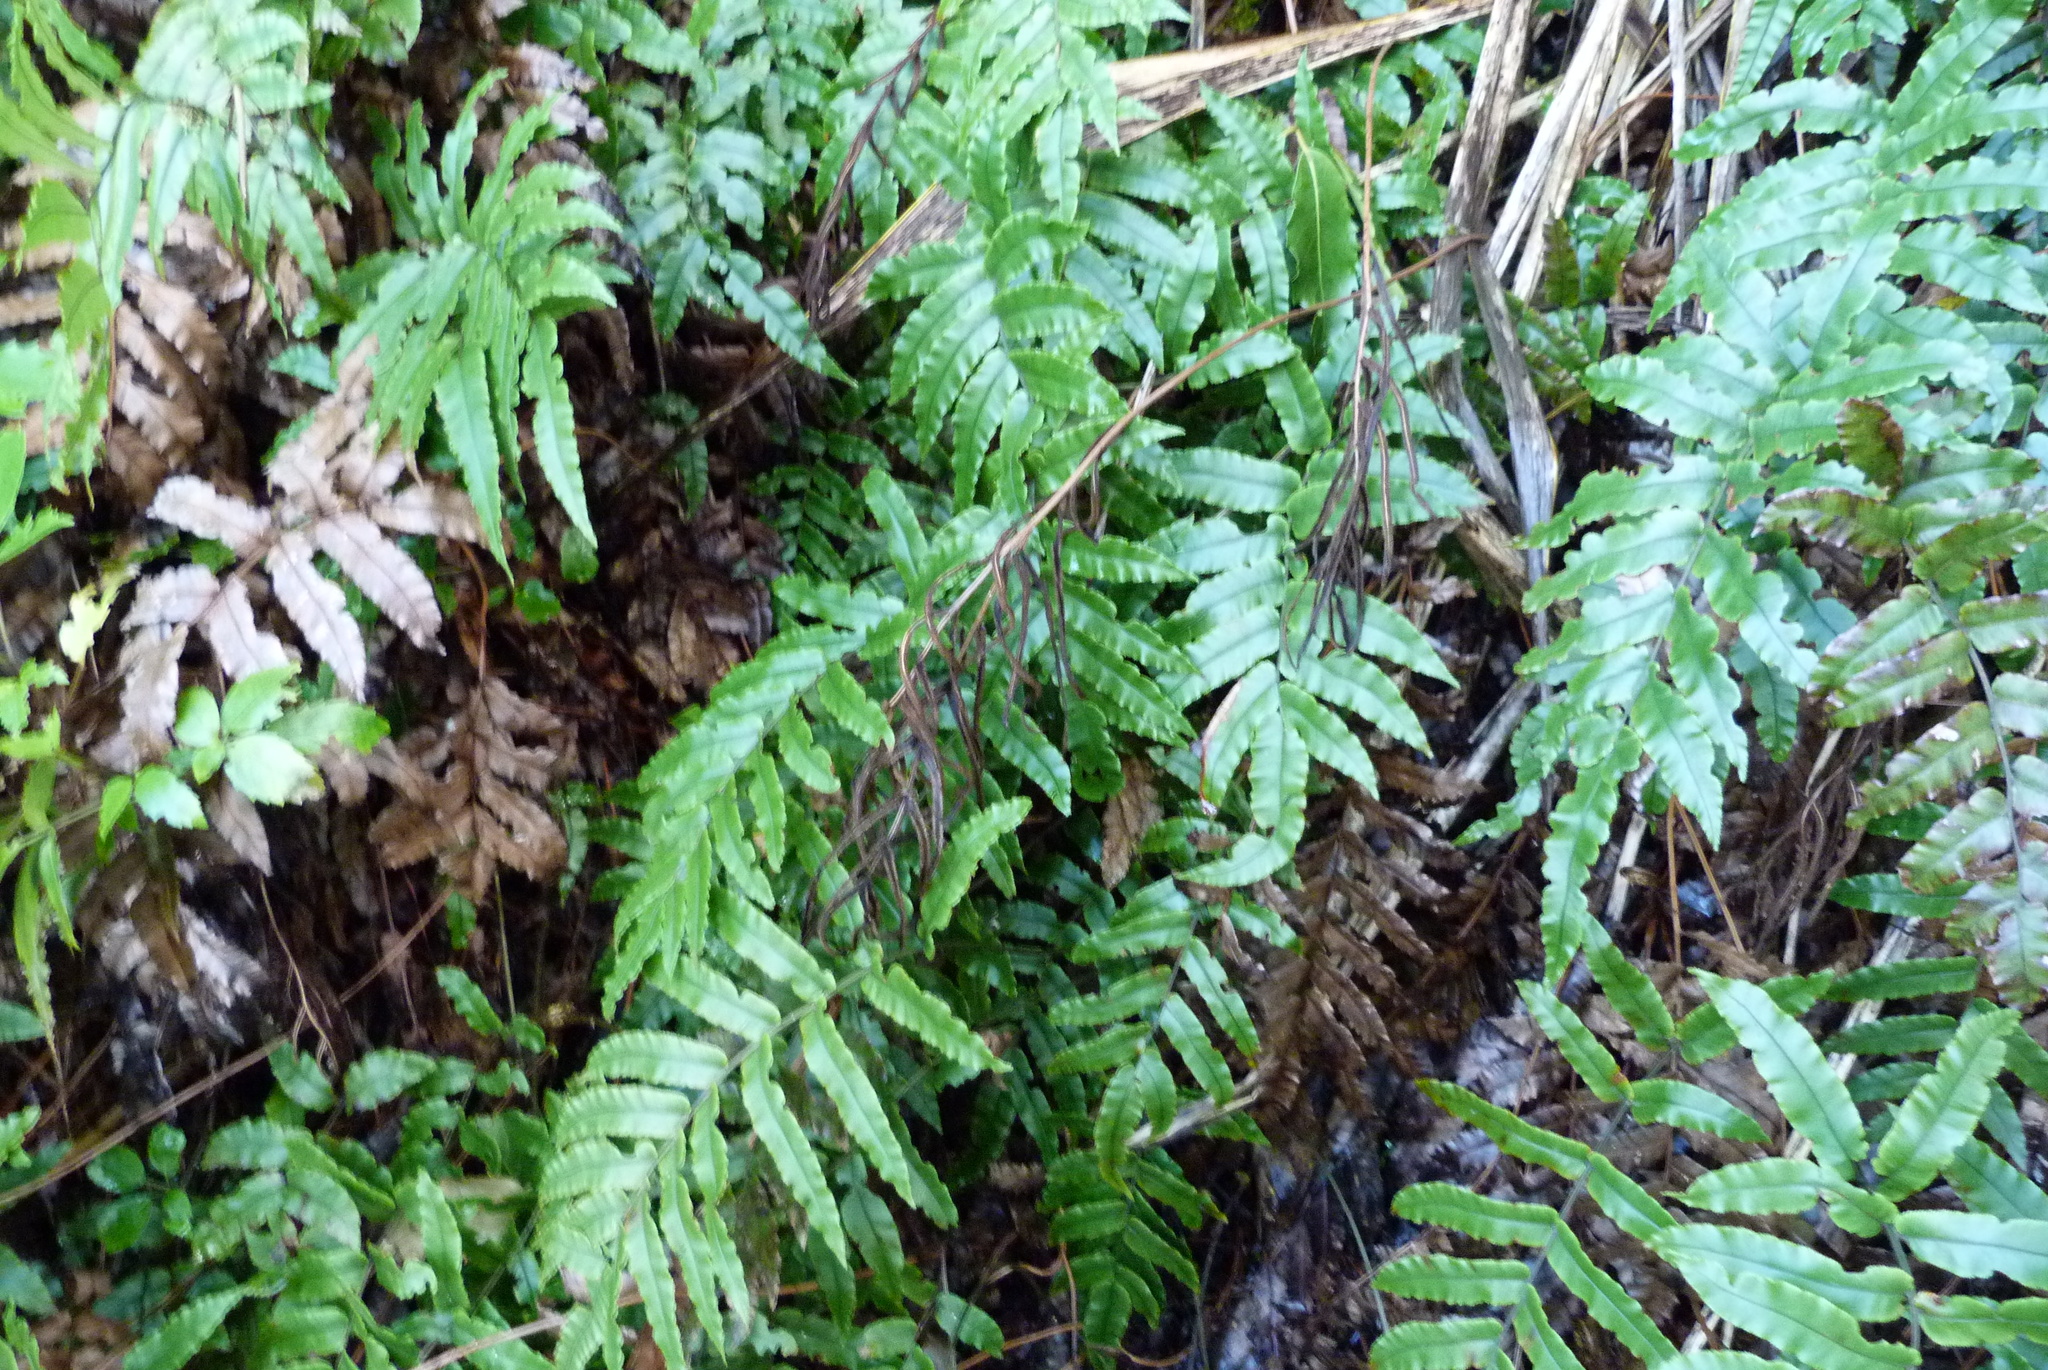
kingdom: Plantae
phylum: Tracheophyta
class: Polypodiopsida
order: Polypodiales
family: Blechnaceae
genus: Parablechnum
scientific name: Parablechnum procerum
